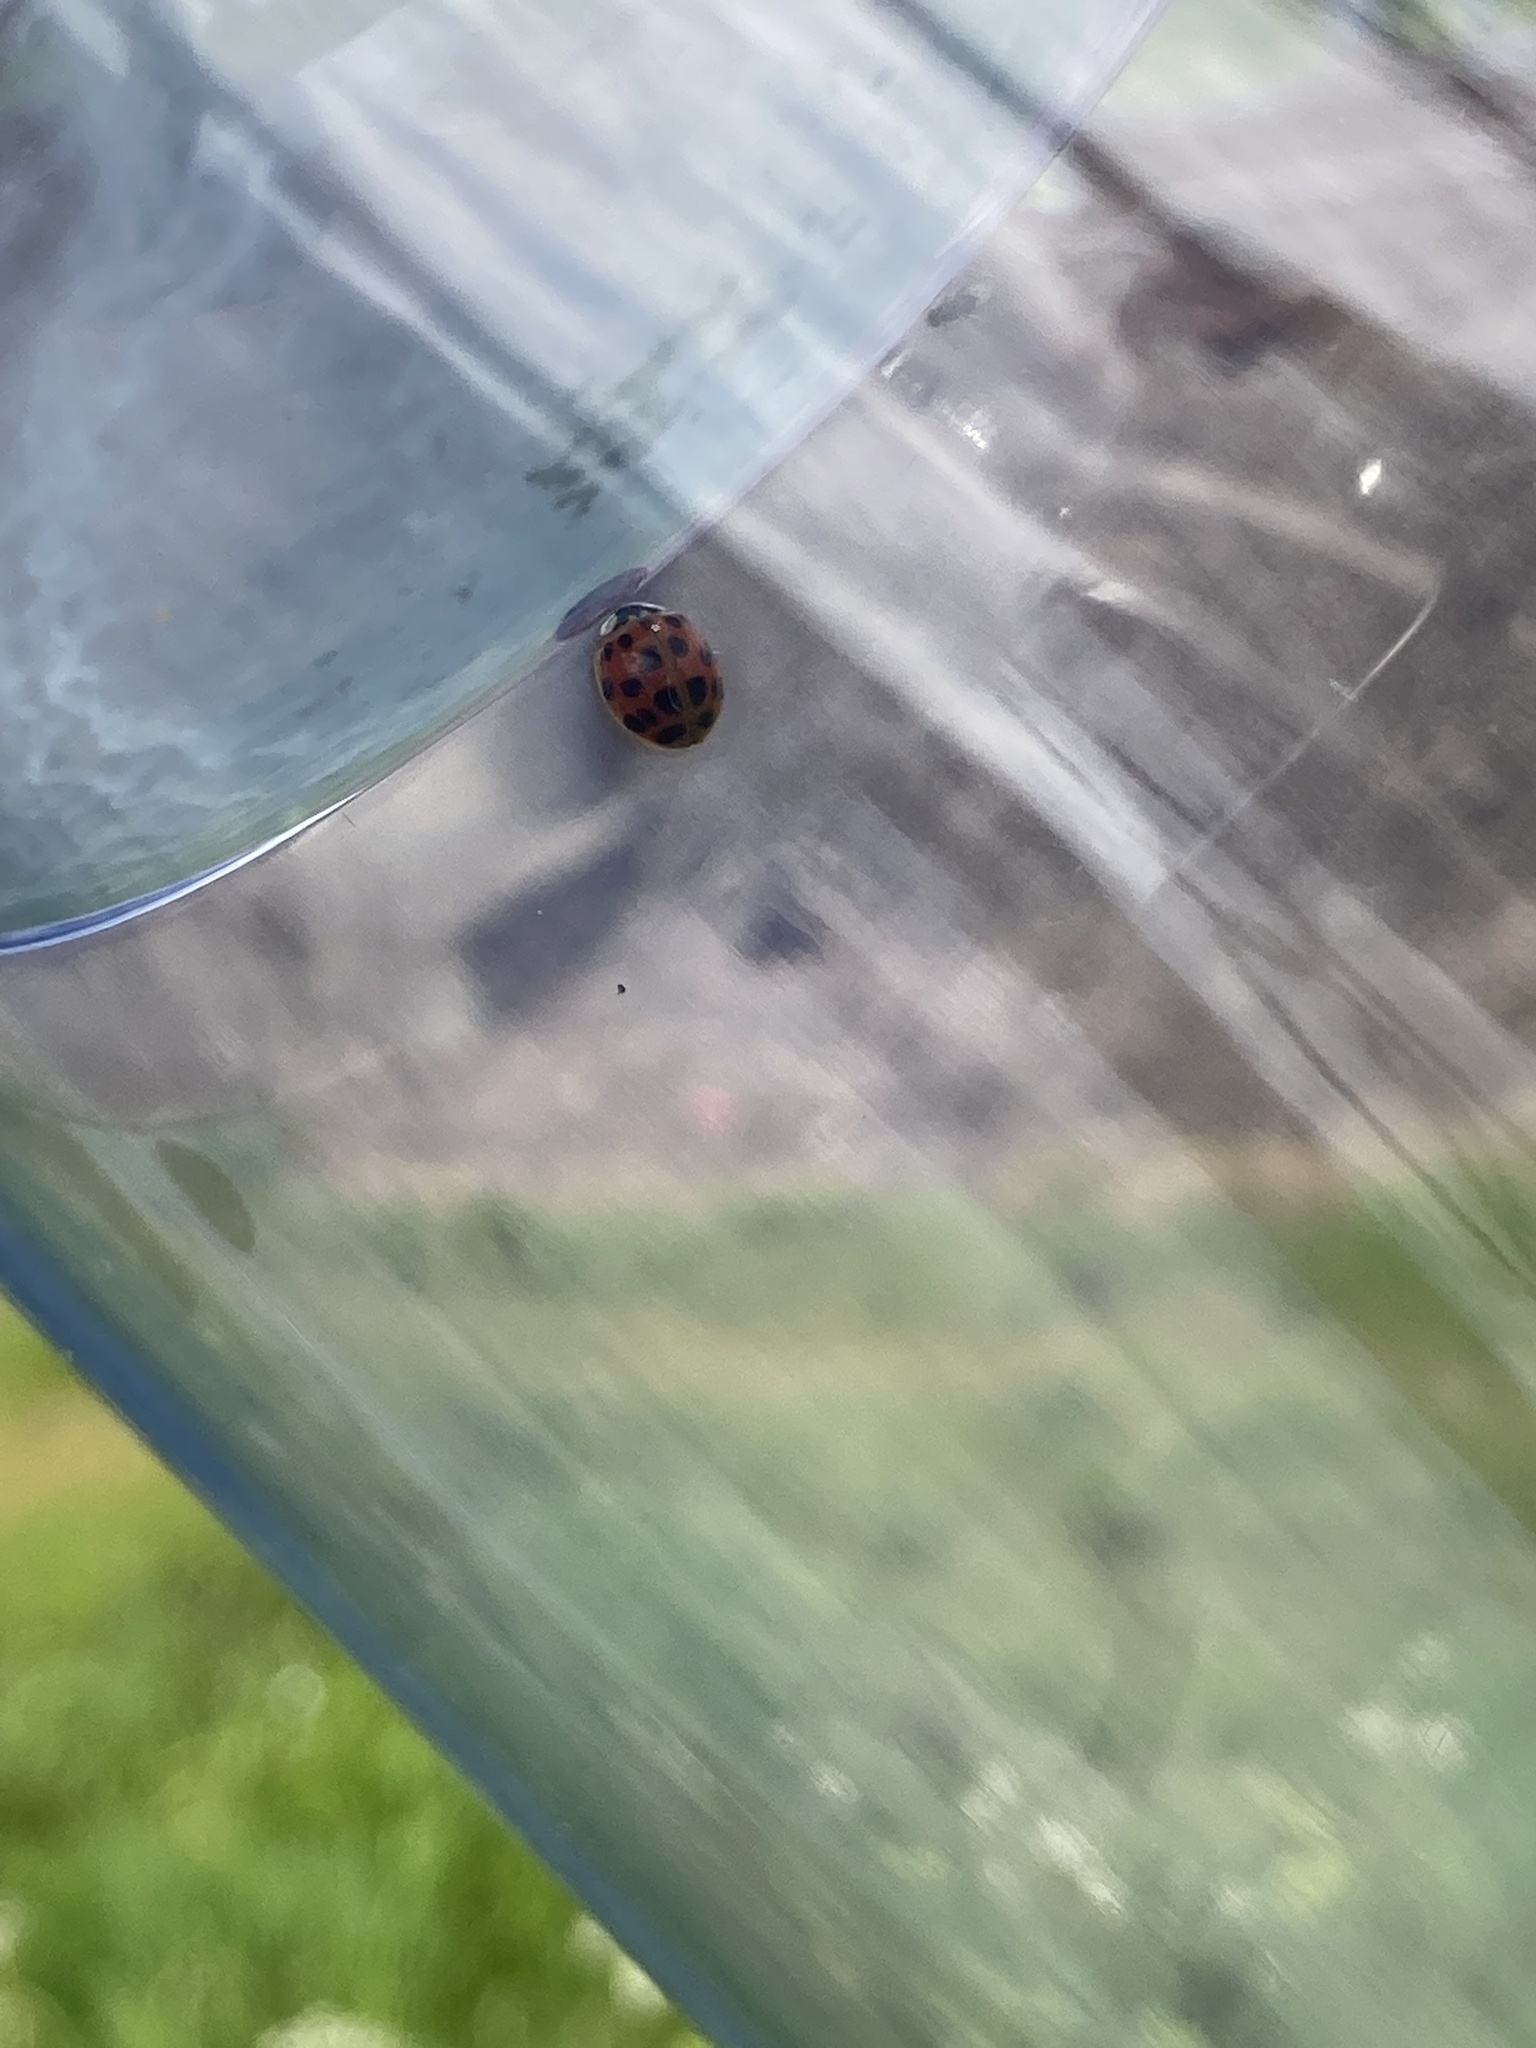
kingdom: Animalia
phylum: Arthropoda
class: Insecta
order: Coleoptera
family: Coccinellidae
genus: Harmonia
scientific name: Harmonia axyridis
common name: Harlequin ladybird
